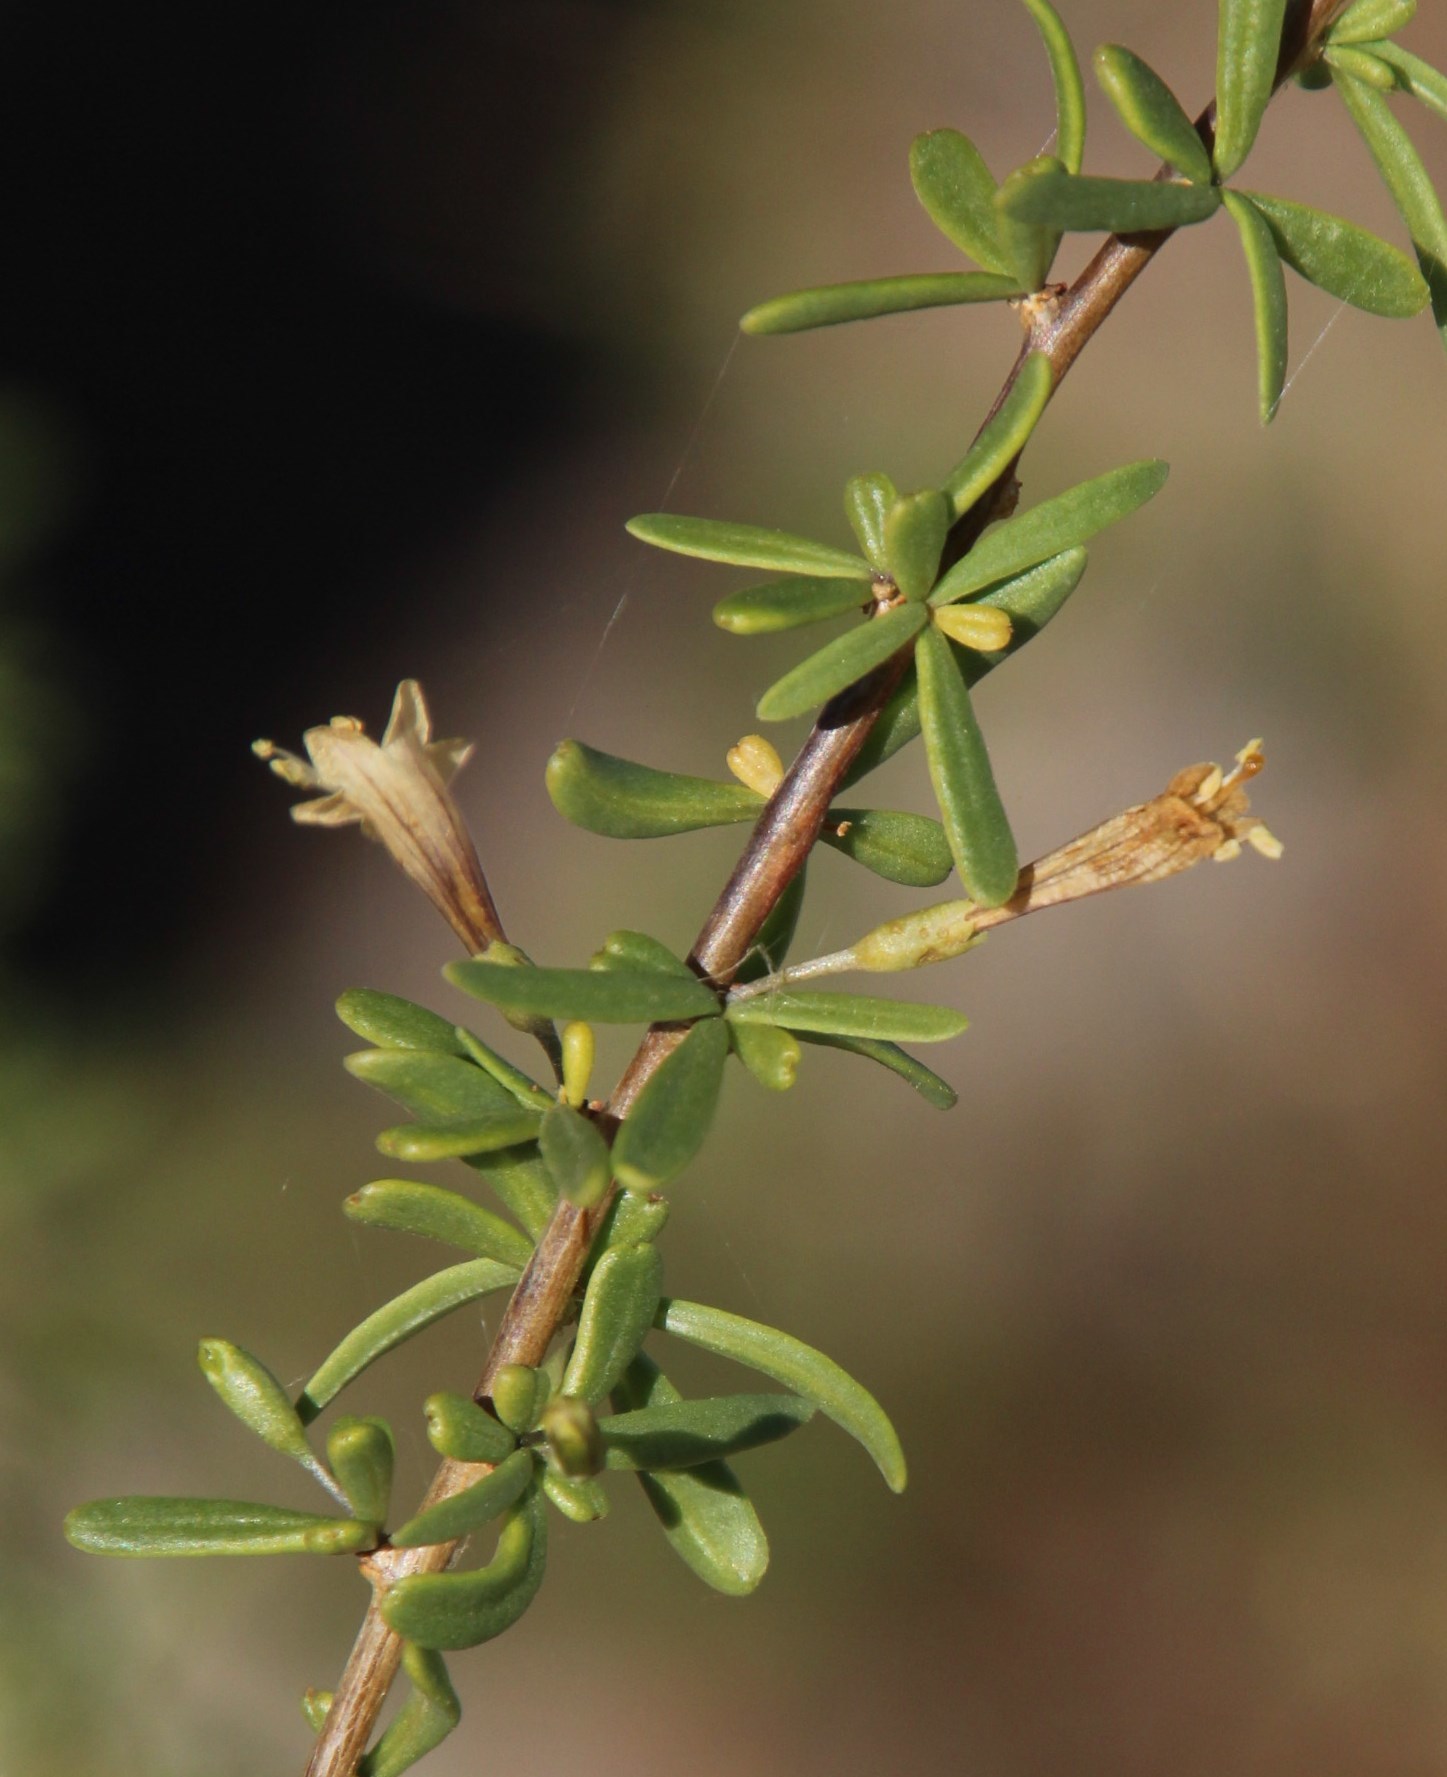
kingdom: Plantae
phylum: Tracheophyta
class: Magnoliopsida
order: Solanales
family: Solanaceae
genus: Lycium
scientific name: Lycium bosciifolium
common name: Limpopo honey-thorn
